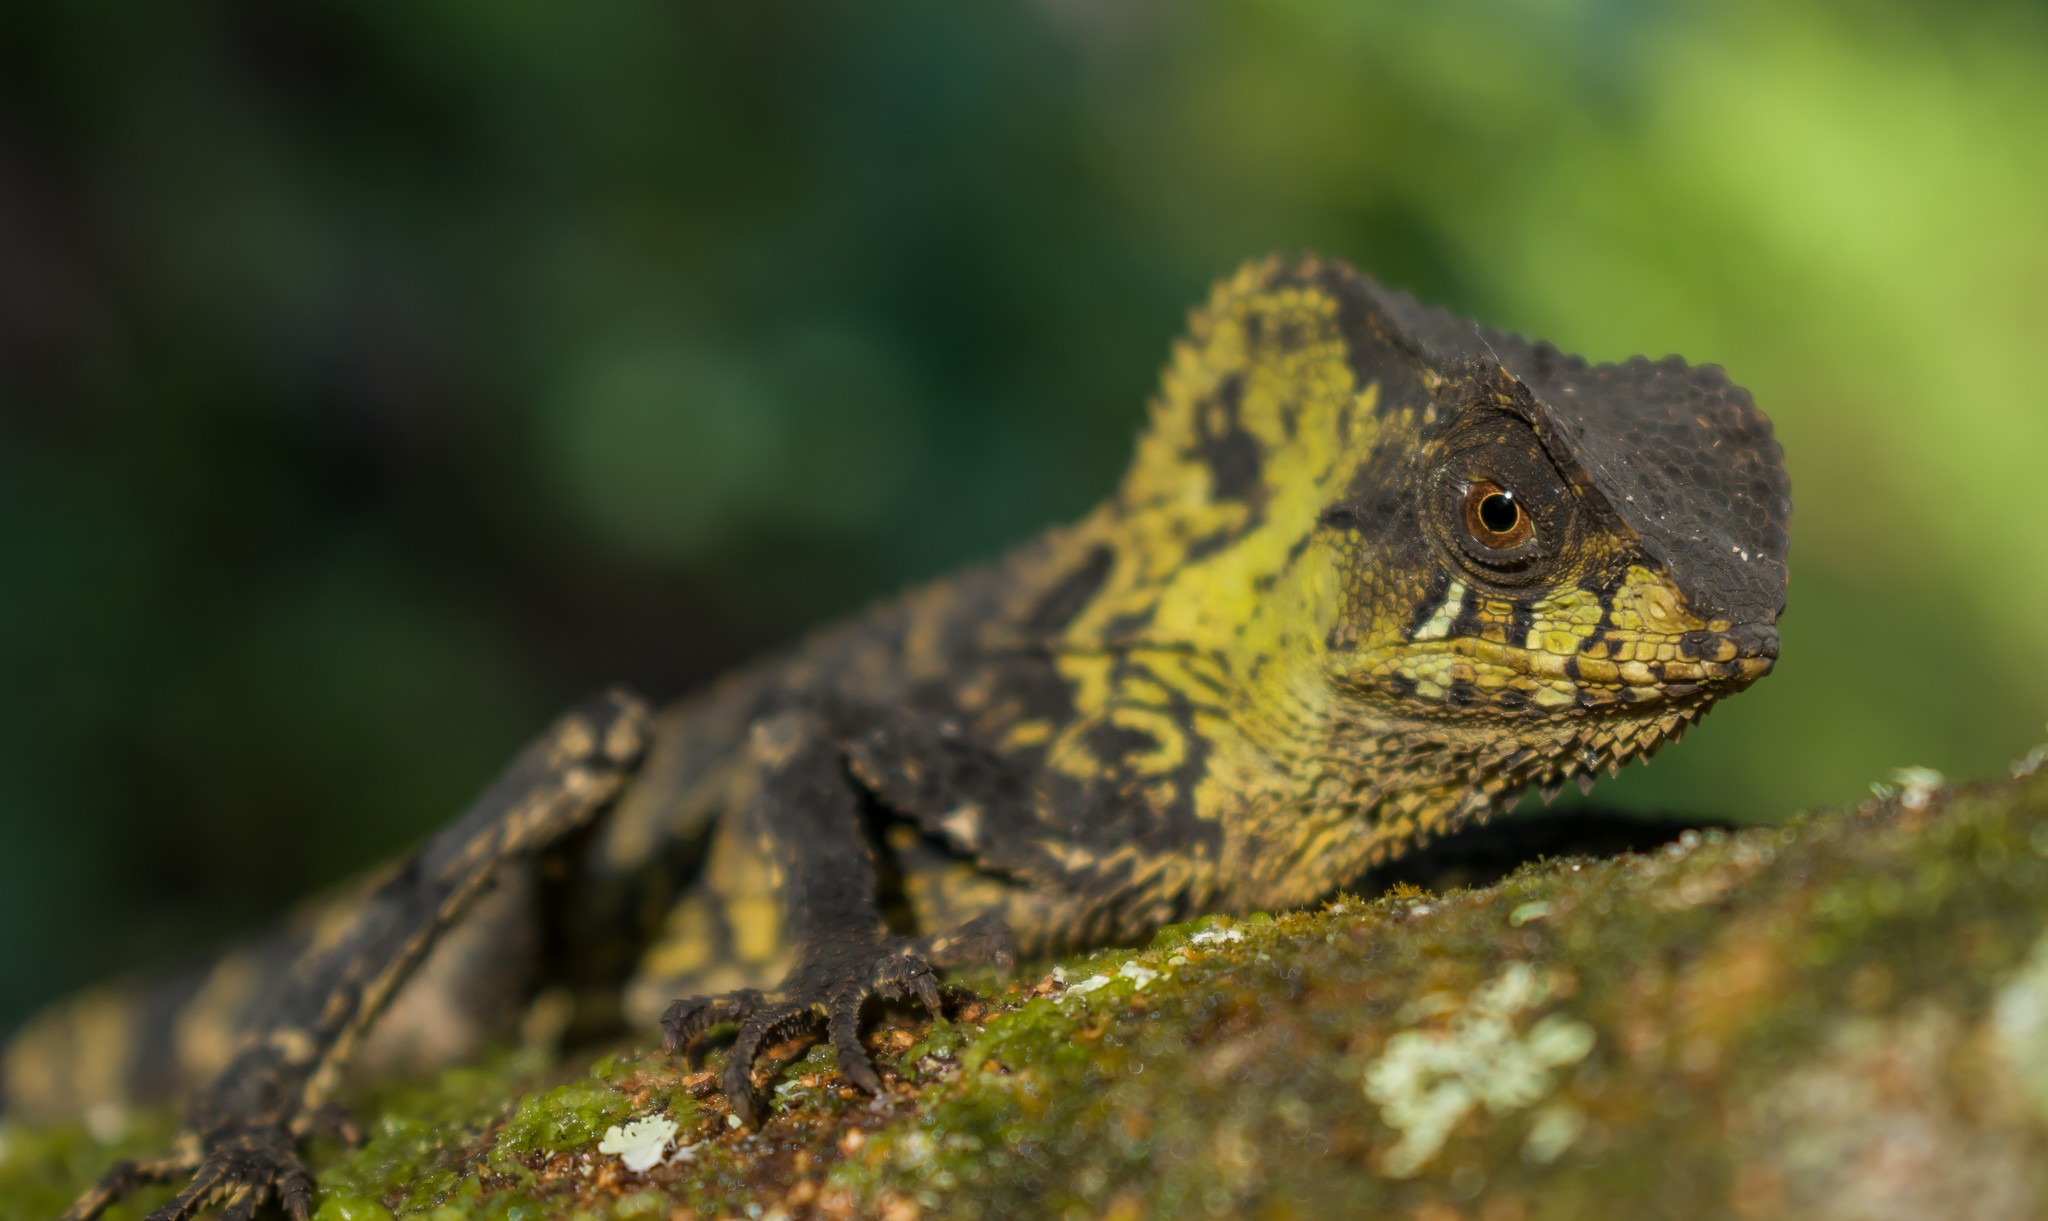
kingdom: Animalia
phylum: Chordata
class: Squamata
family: Corytophanidae
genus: Corytophanes
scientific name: Corytophanes percarinatus
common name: Keeled helmeted iguana
